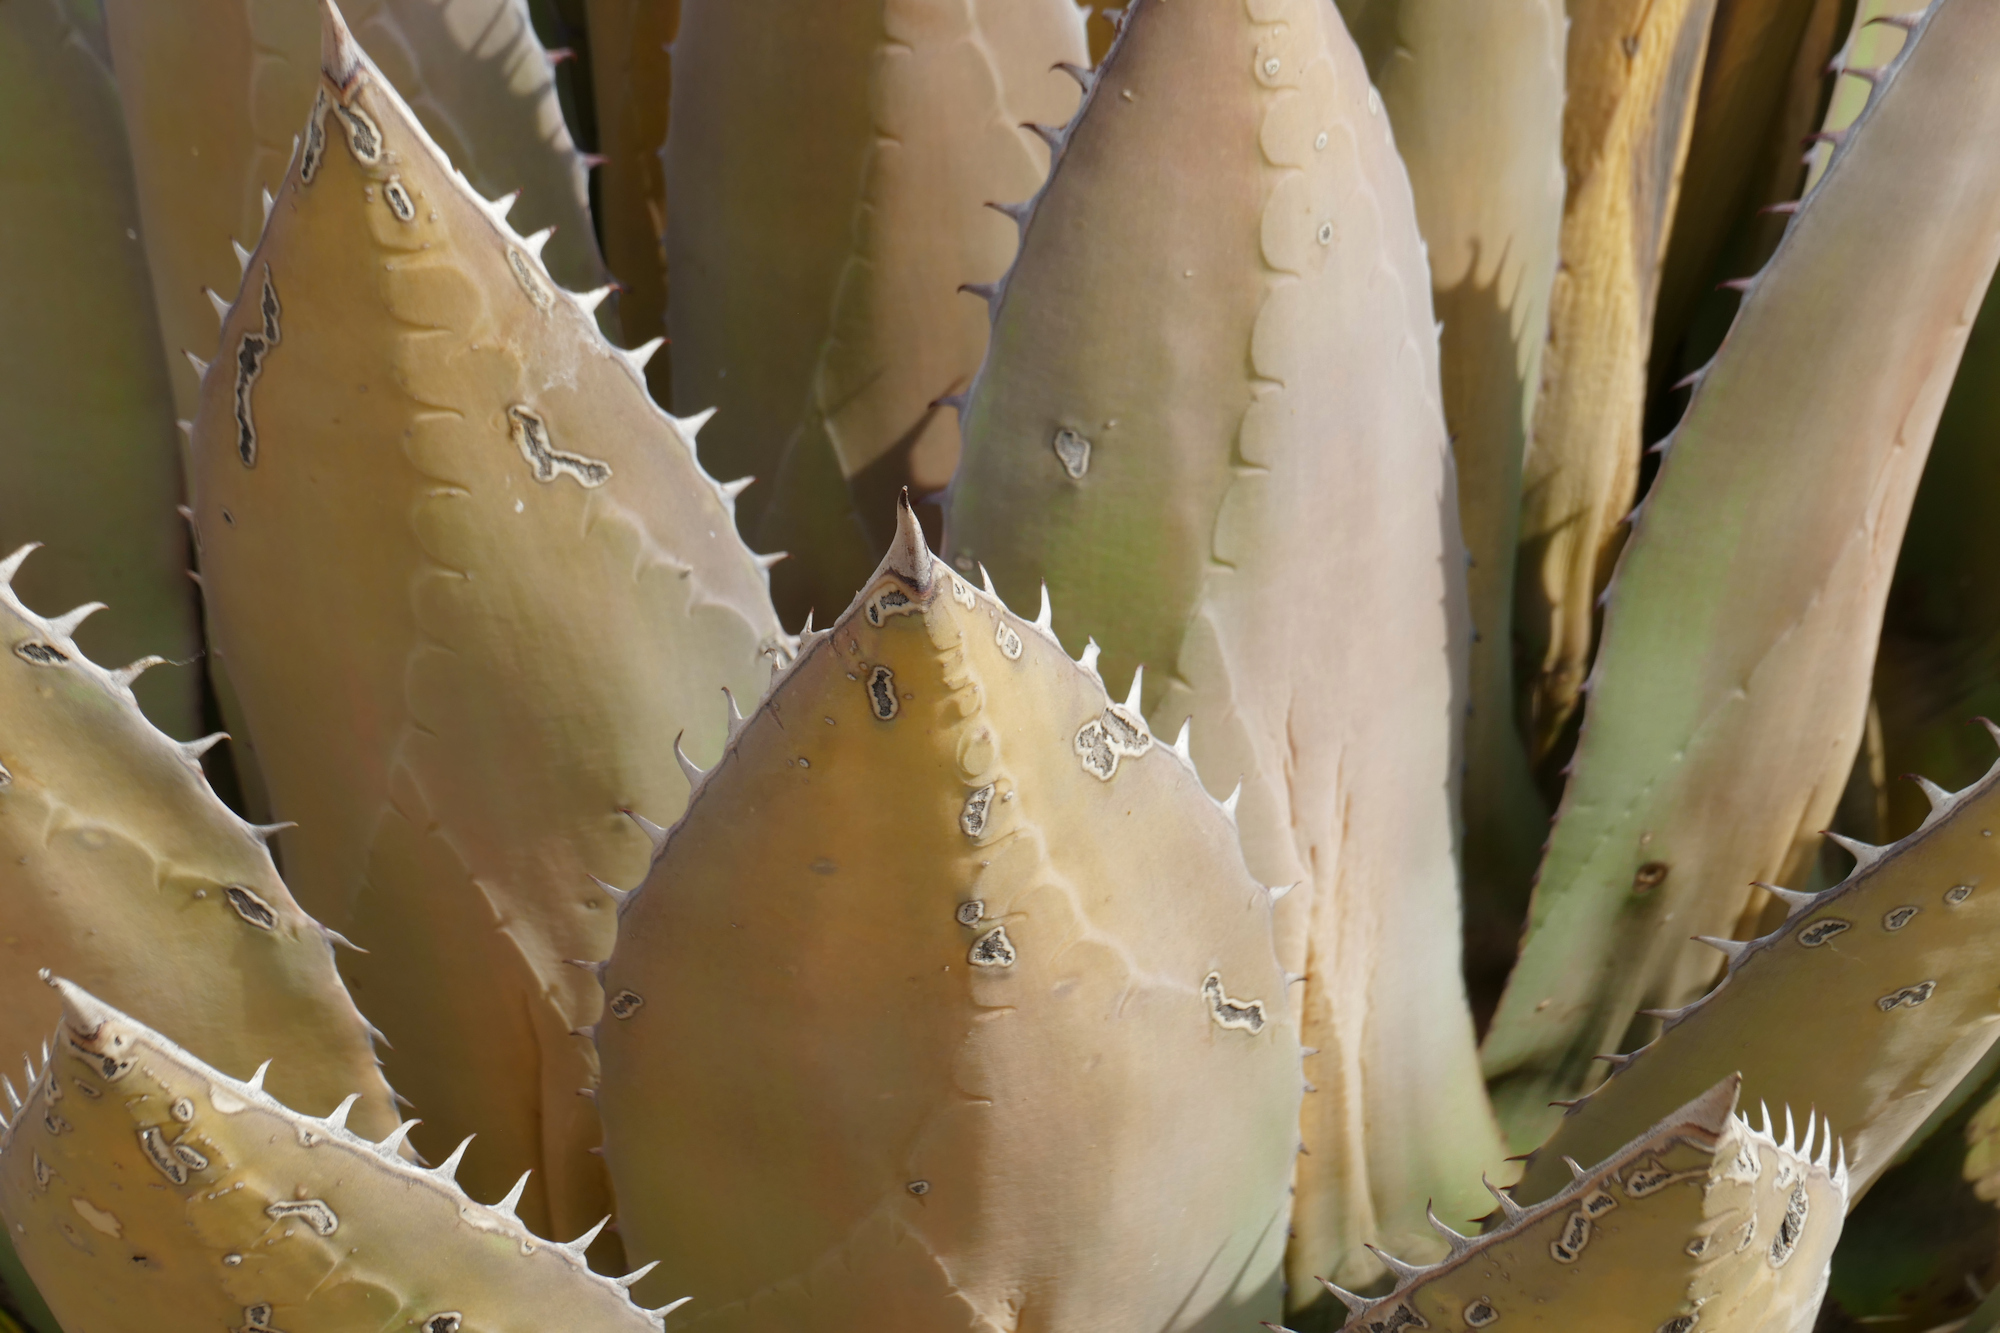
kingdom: Plantae
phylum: Tracheophyta
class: Liliopsida
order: Asparagales
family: Asparagaceae
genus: Agave
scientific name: Agave parryi
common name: Parry's agave
